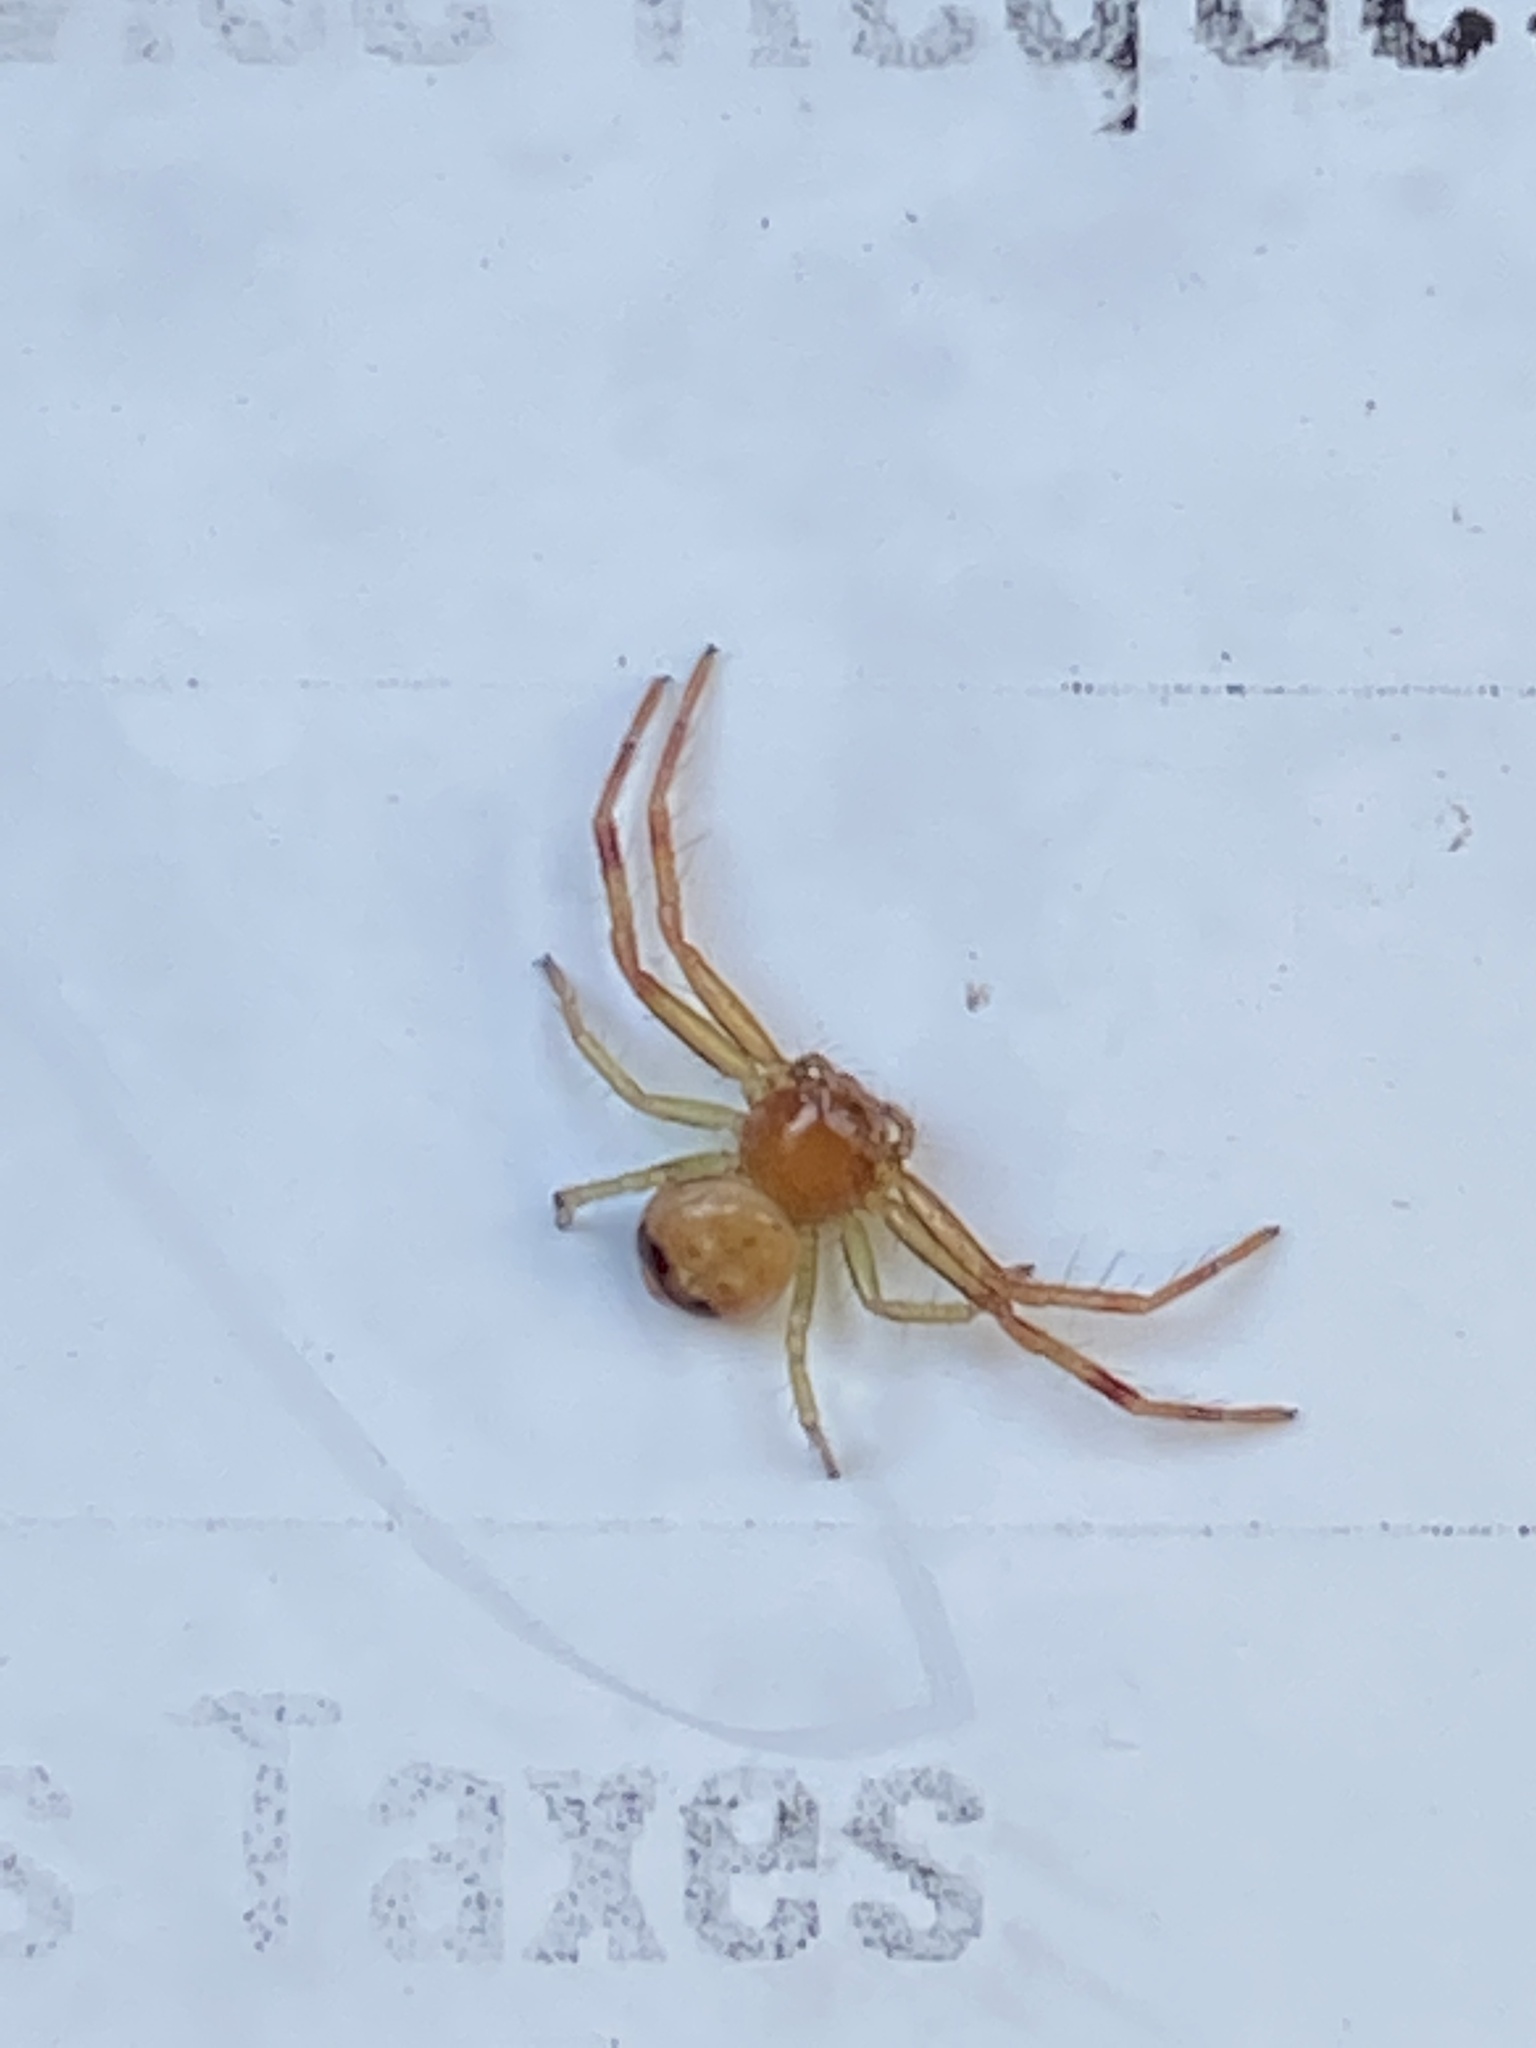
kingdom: Animalia
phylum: Arthropoda
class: Arachnida
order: Araneae
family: Thomisidae
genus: Synema
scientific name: Synema parvulum
